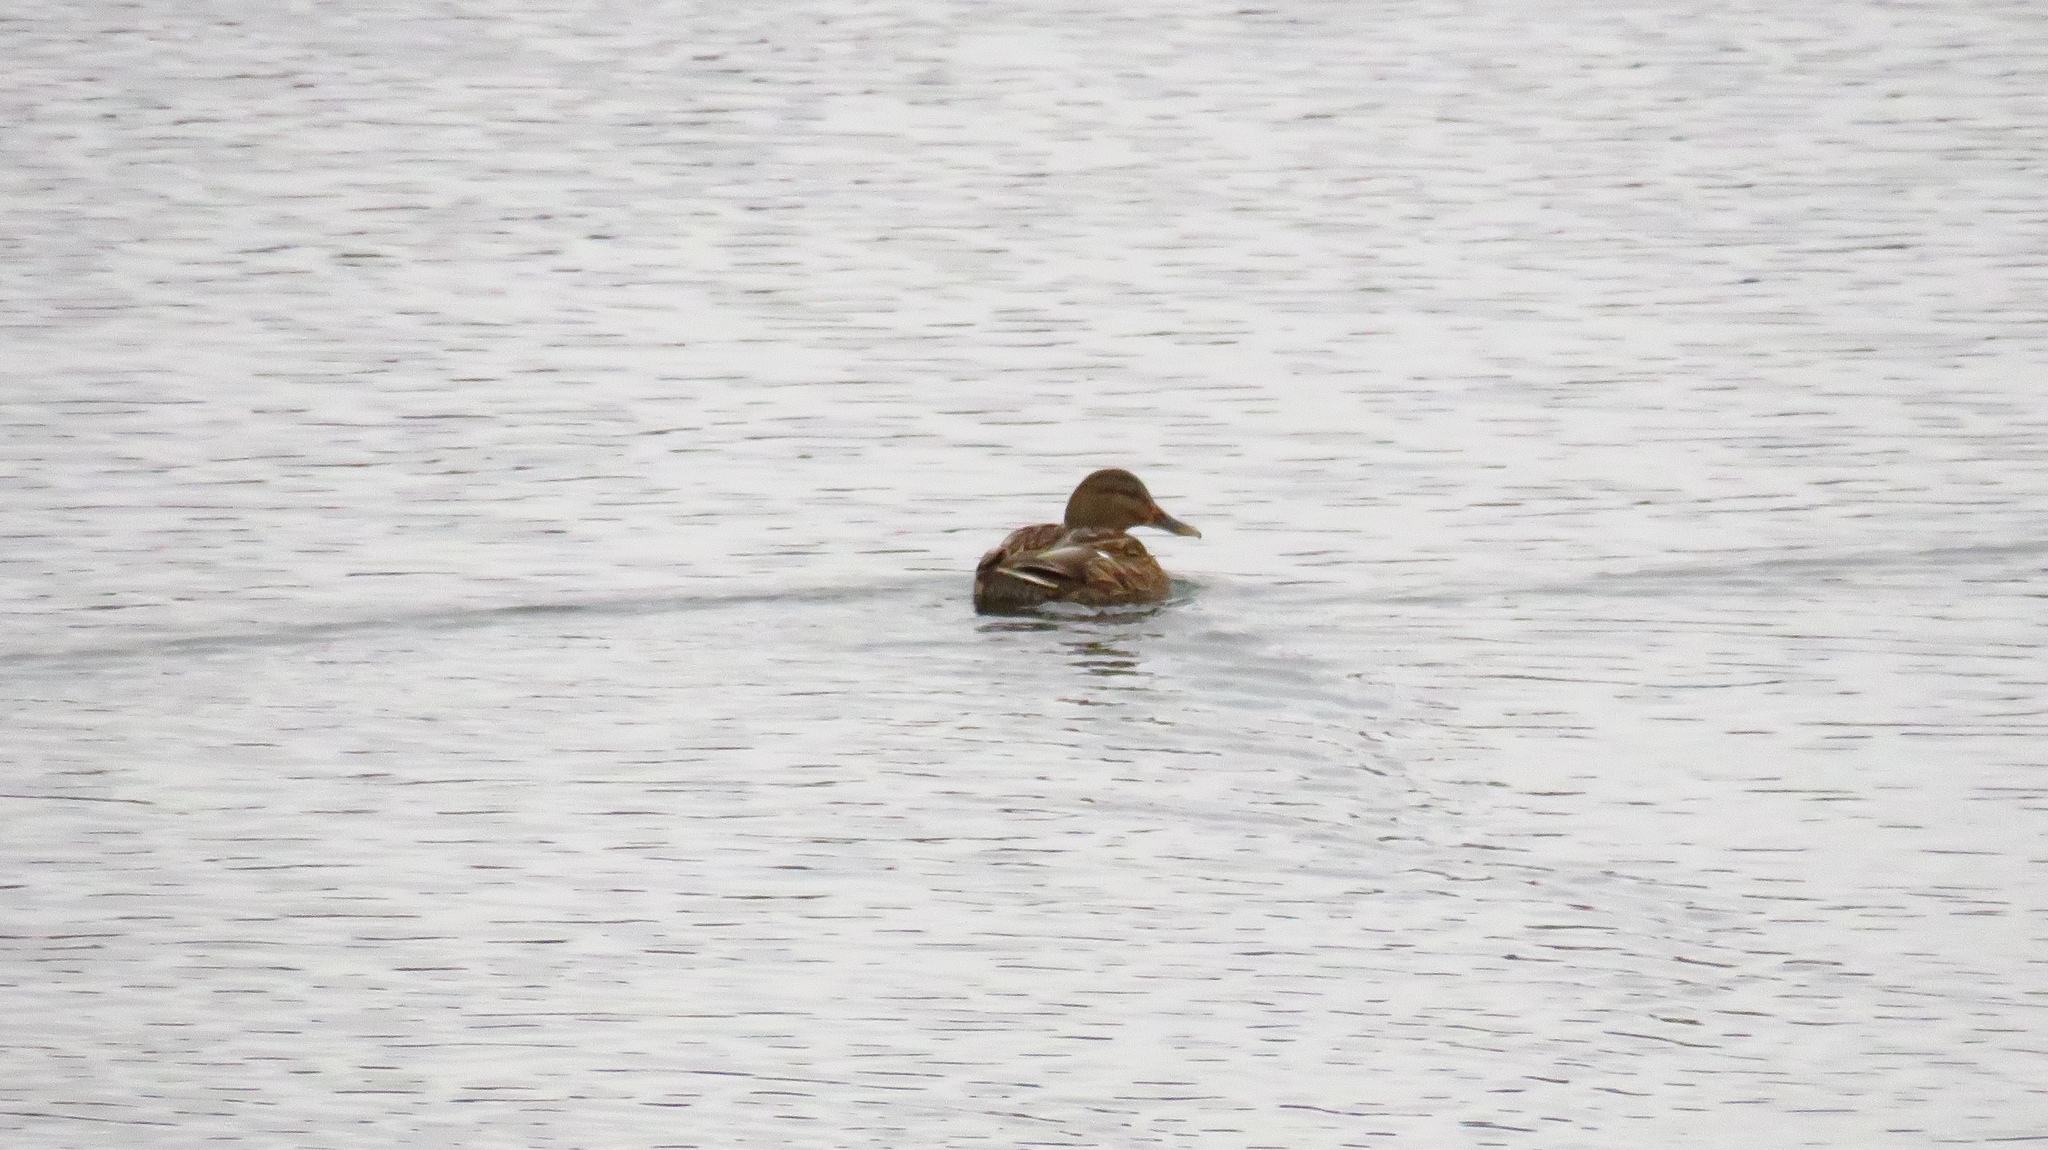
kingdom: Animalia
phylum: Chordata
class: Aves
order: Anseriformes
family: Anatidae
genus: Anas
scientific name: Anas platyrhynchos
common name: Mallard
